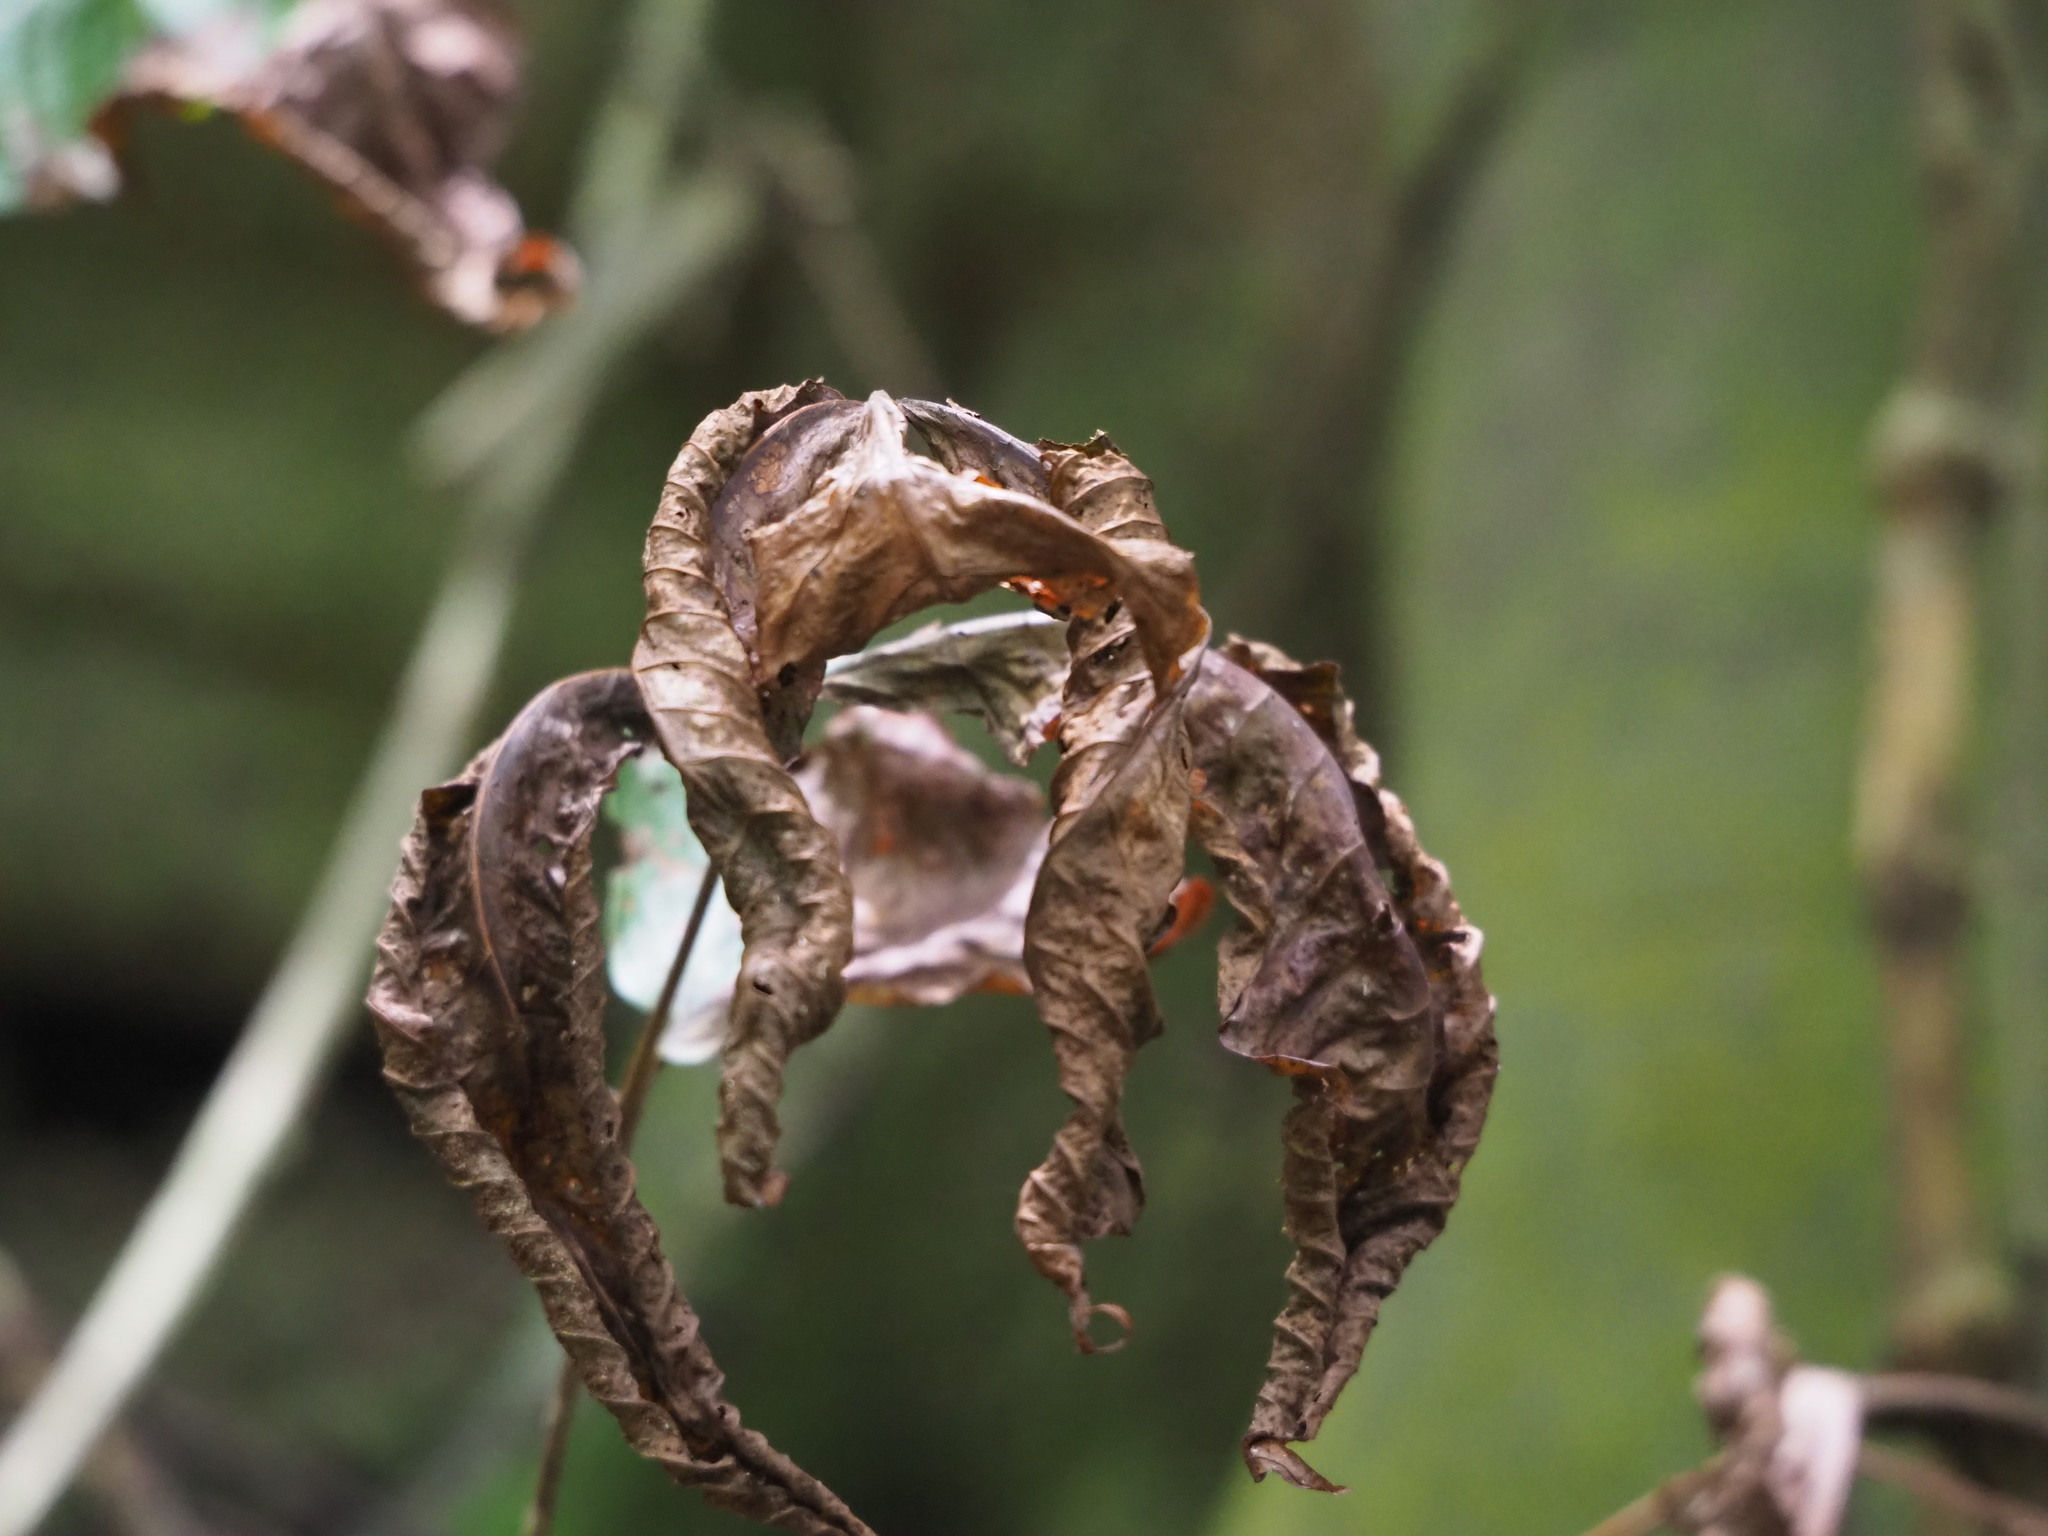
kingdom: Plantae
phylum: Tracheophyta
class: Polypodiopsida
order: Polypodiales
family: Tectariaceae
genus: Tectaria
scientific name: Tectaria polymorpha
